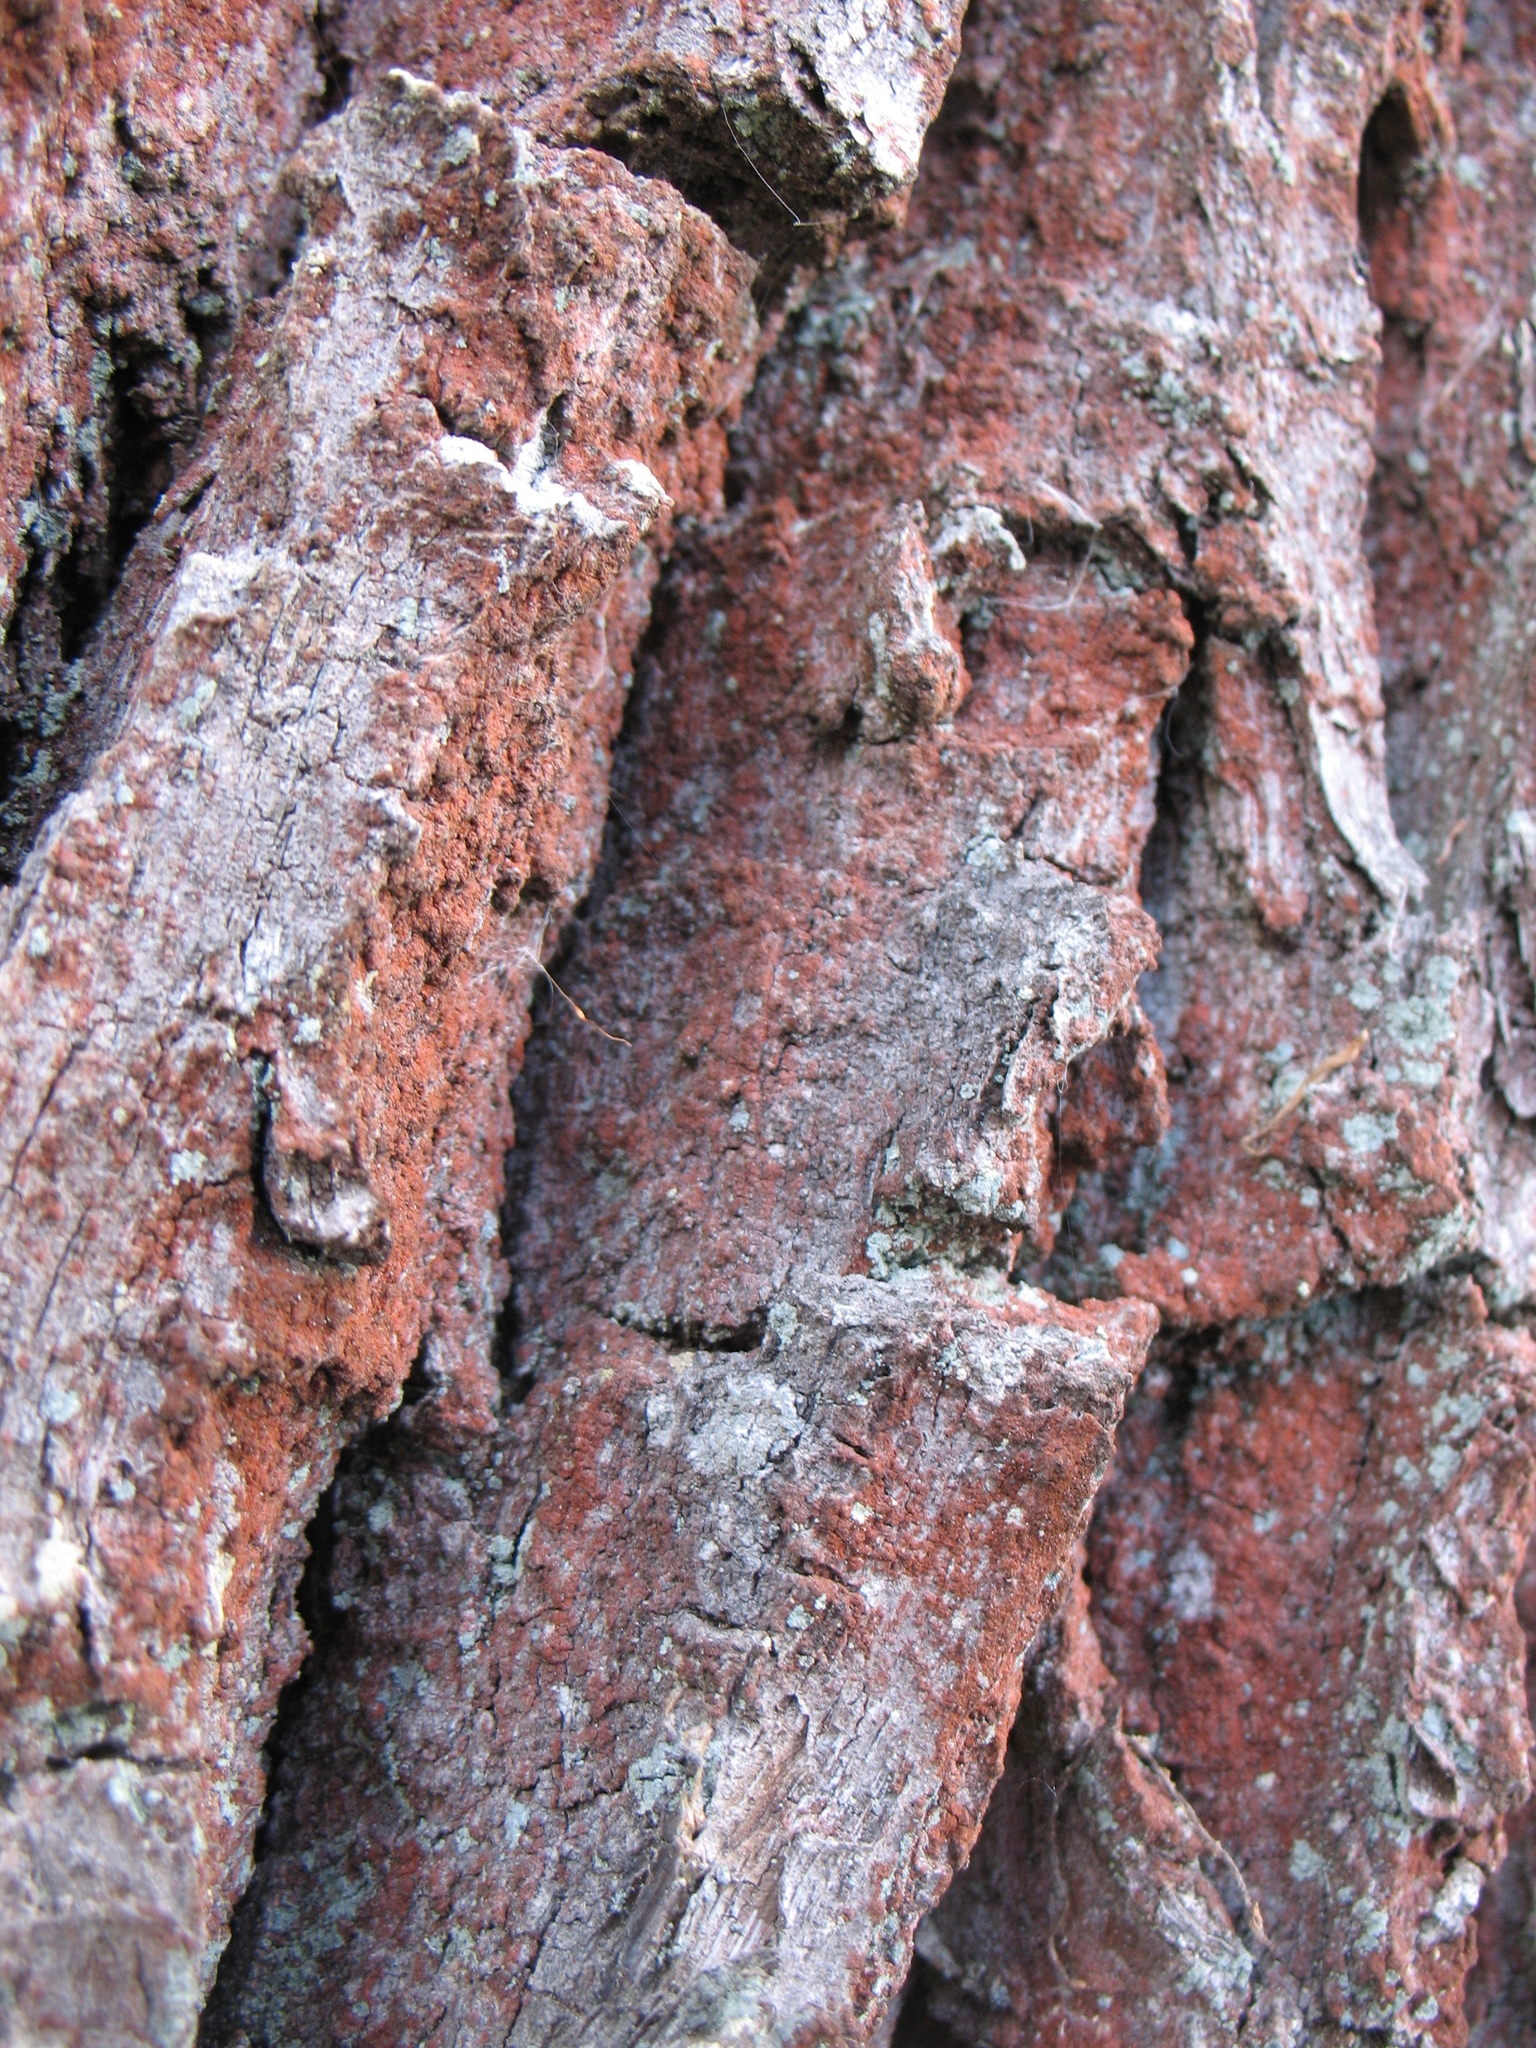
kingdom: Plantae
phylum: Chlorophyta
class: Ulvophyceae
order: Trentepohliales
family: Trentepohliaceae
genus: Trentepohlia
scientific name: Trentepohlia umbrina
